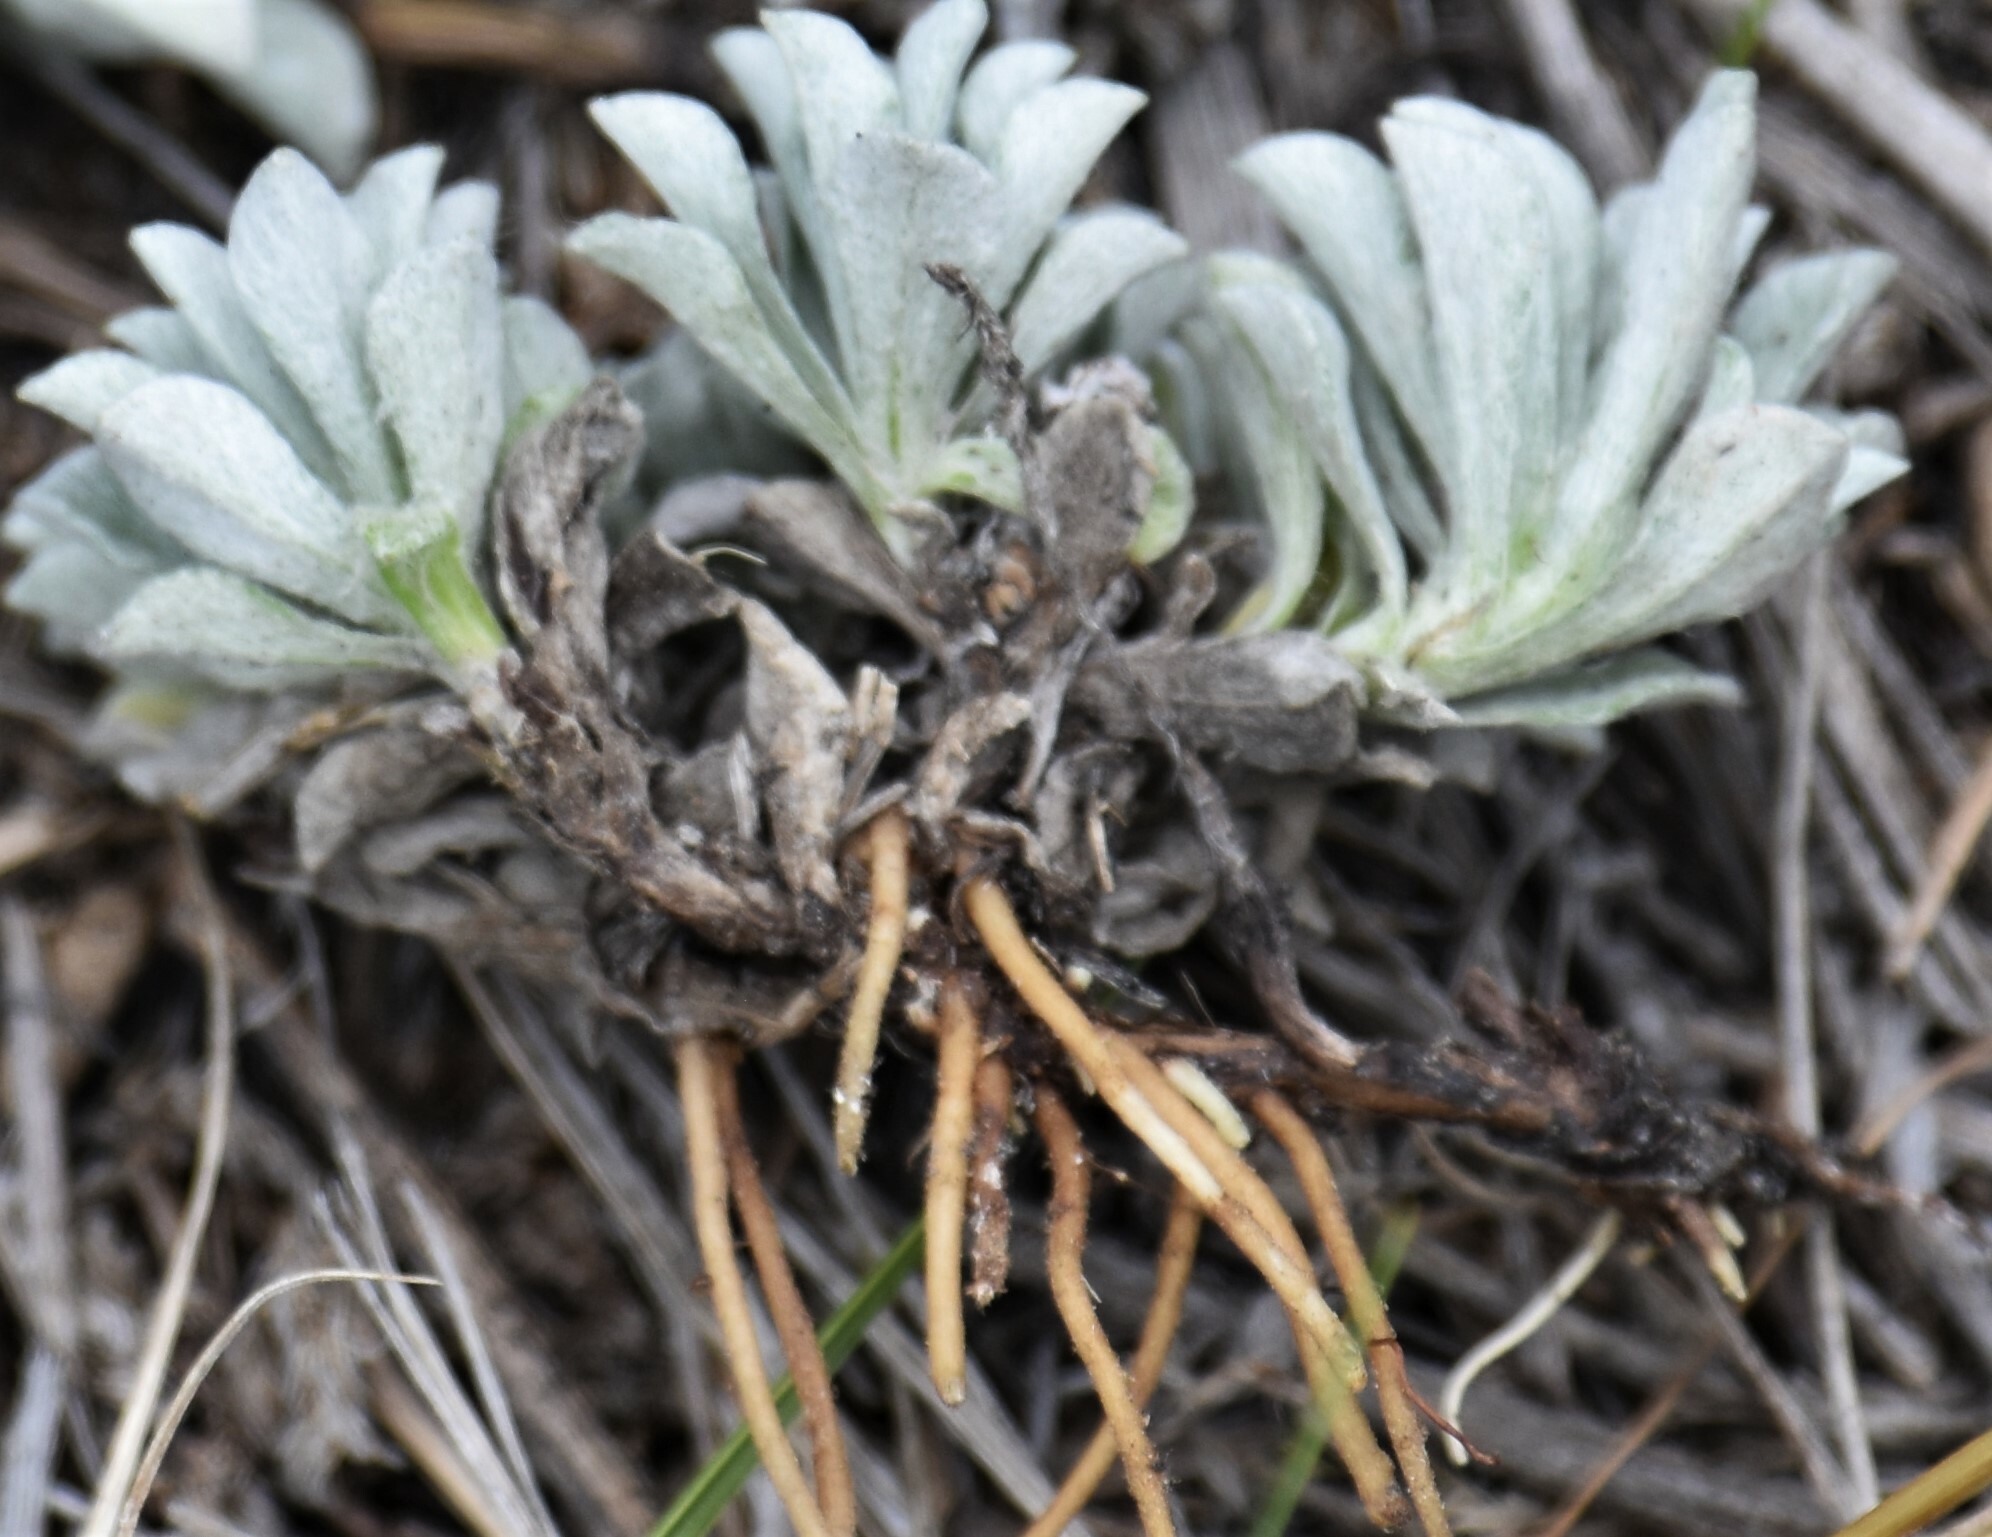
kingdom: Plantae
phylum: Tracheophyta
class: Magnoliopsida
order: Asterales
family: Asteraceae
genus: Antennaria
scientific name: Antennaria parvifolia
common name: Nuttall's pussytoes
